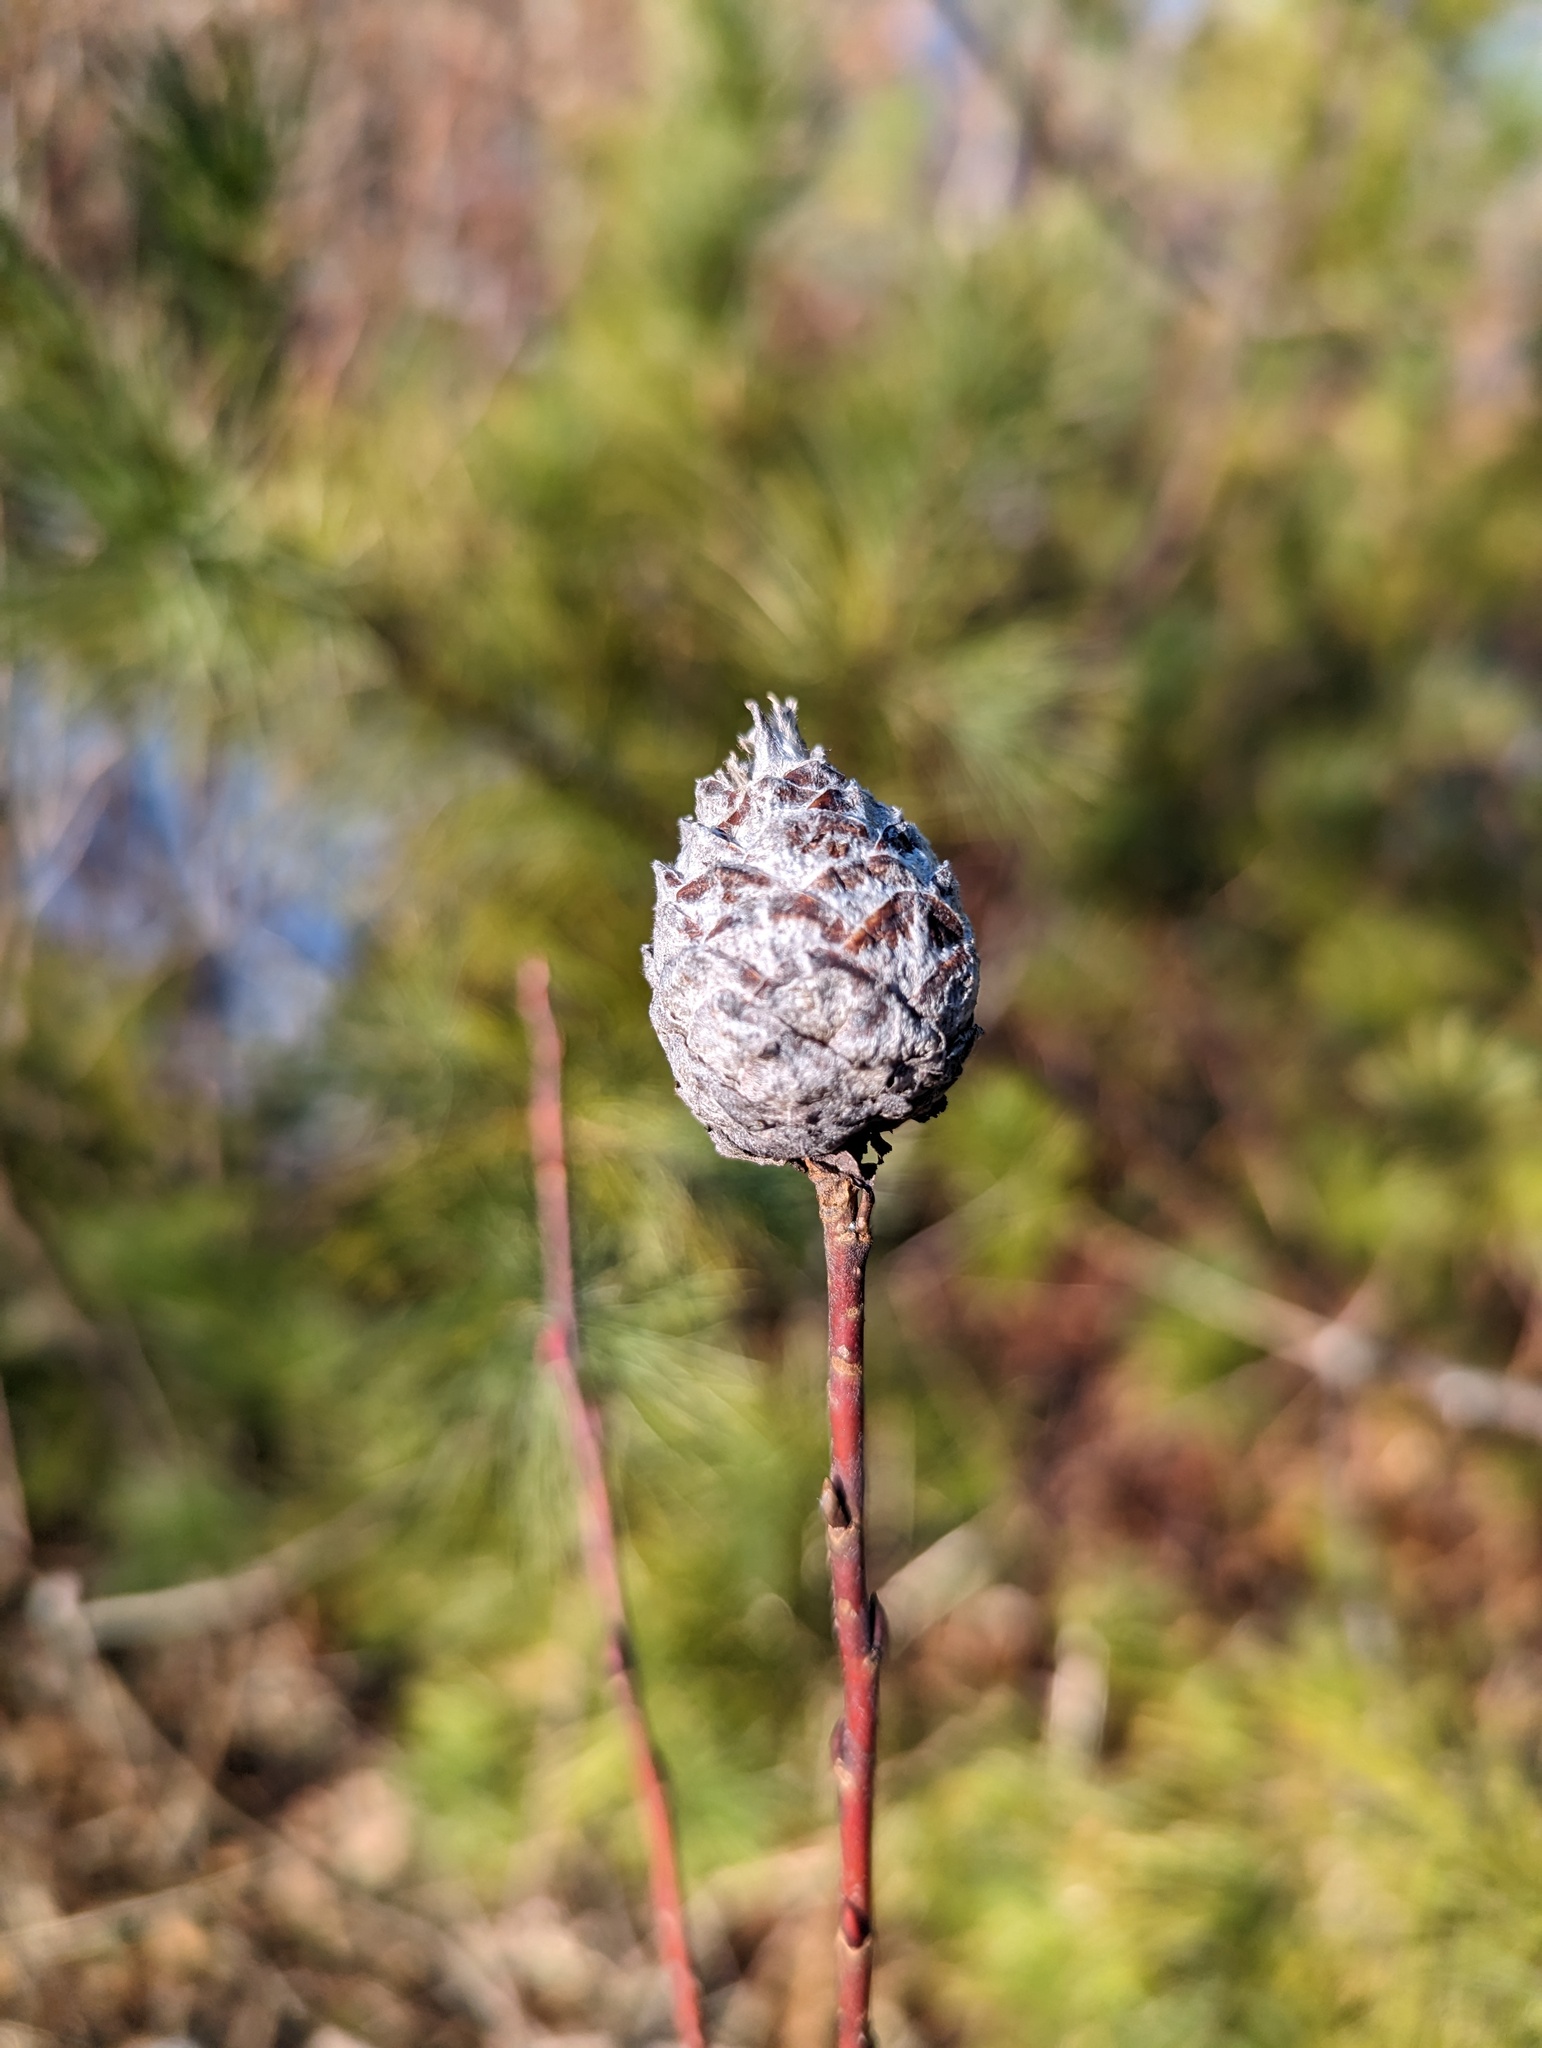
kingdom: Animalia
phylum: Arthropoda
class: Insecta
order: Diptera
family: Cecidomyiidae
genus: Rabdophaga
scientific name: Rabdophaga strobiloides
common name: Willow pinecone gall midge
